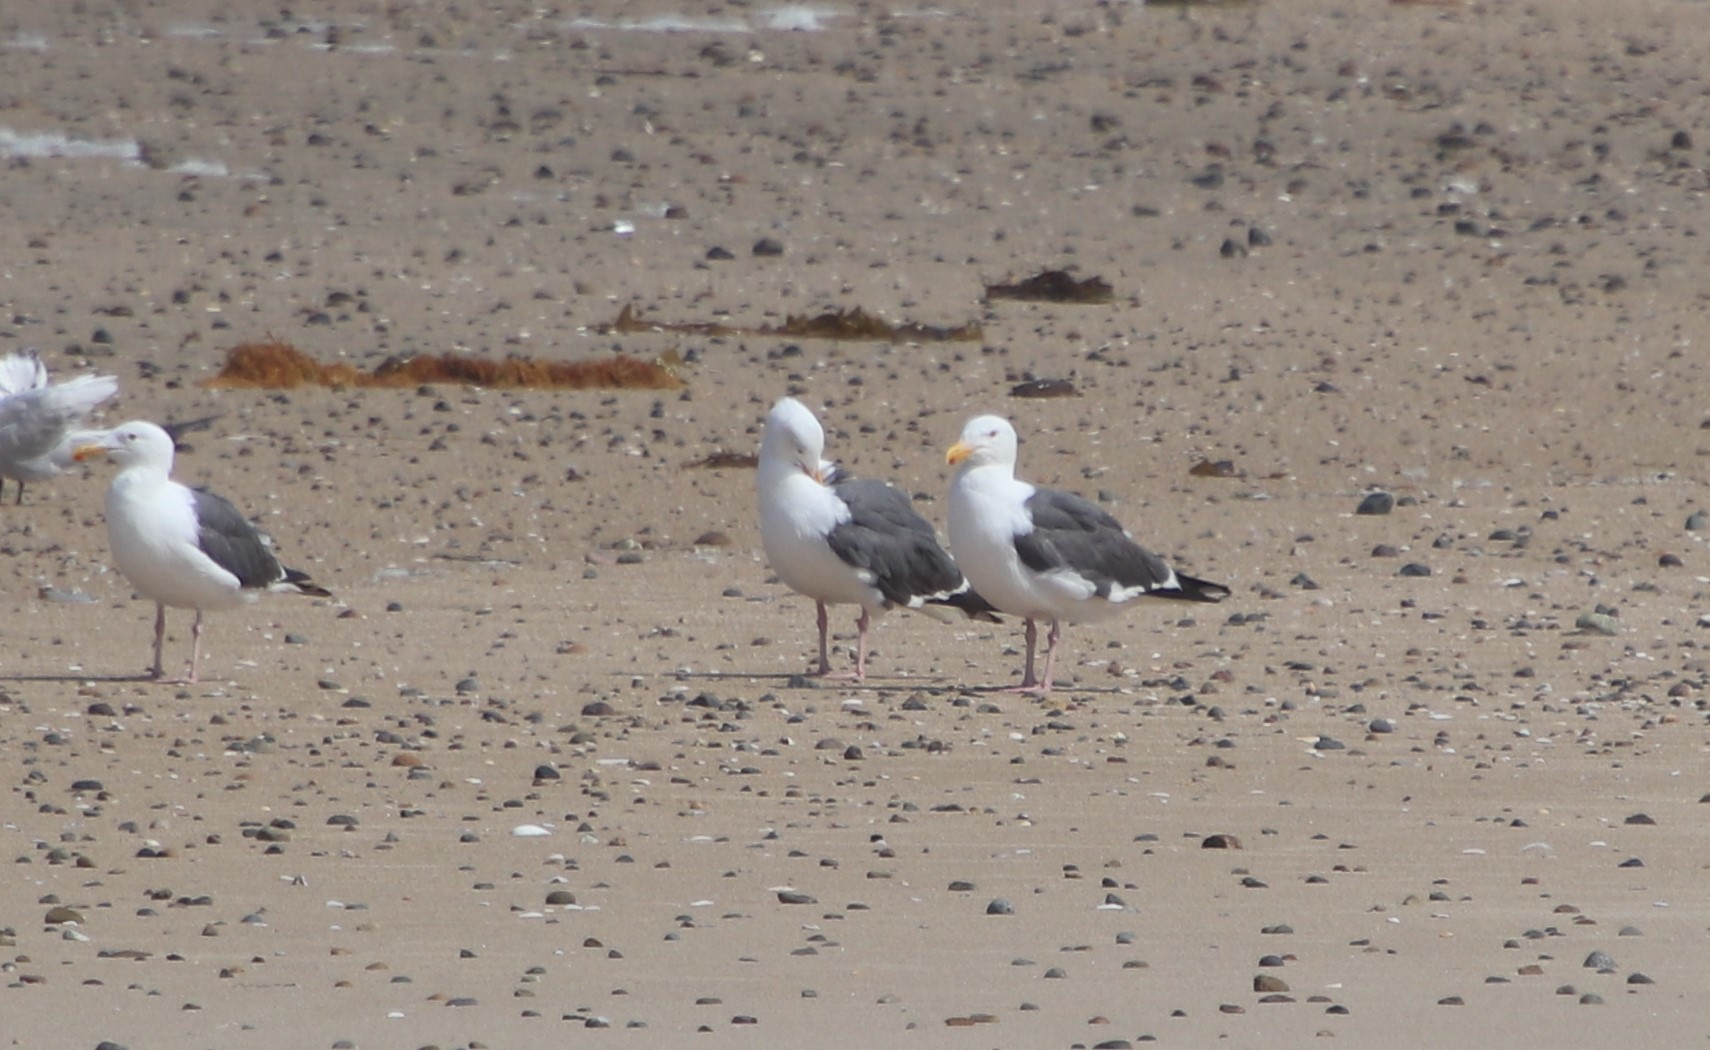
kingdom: Animalia
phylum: Chordata
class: Aves
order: Charadriiformes
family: Laridae
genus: Larus
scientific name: Larus occidentalis
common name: Western gull
